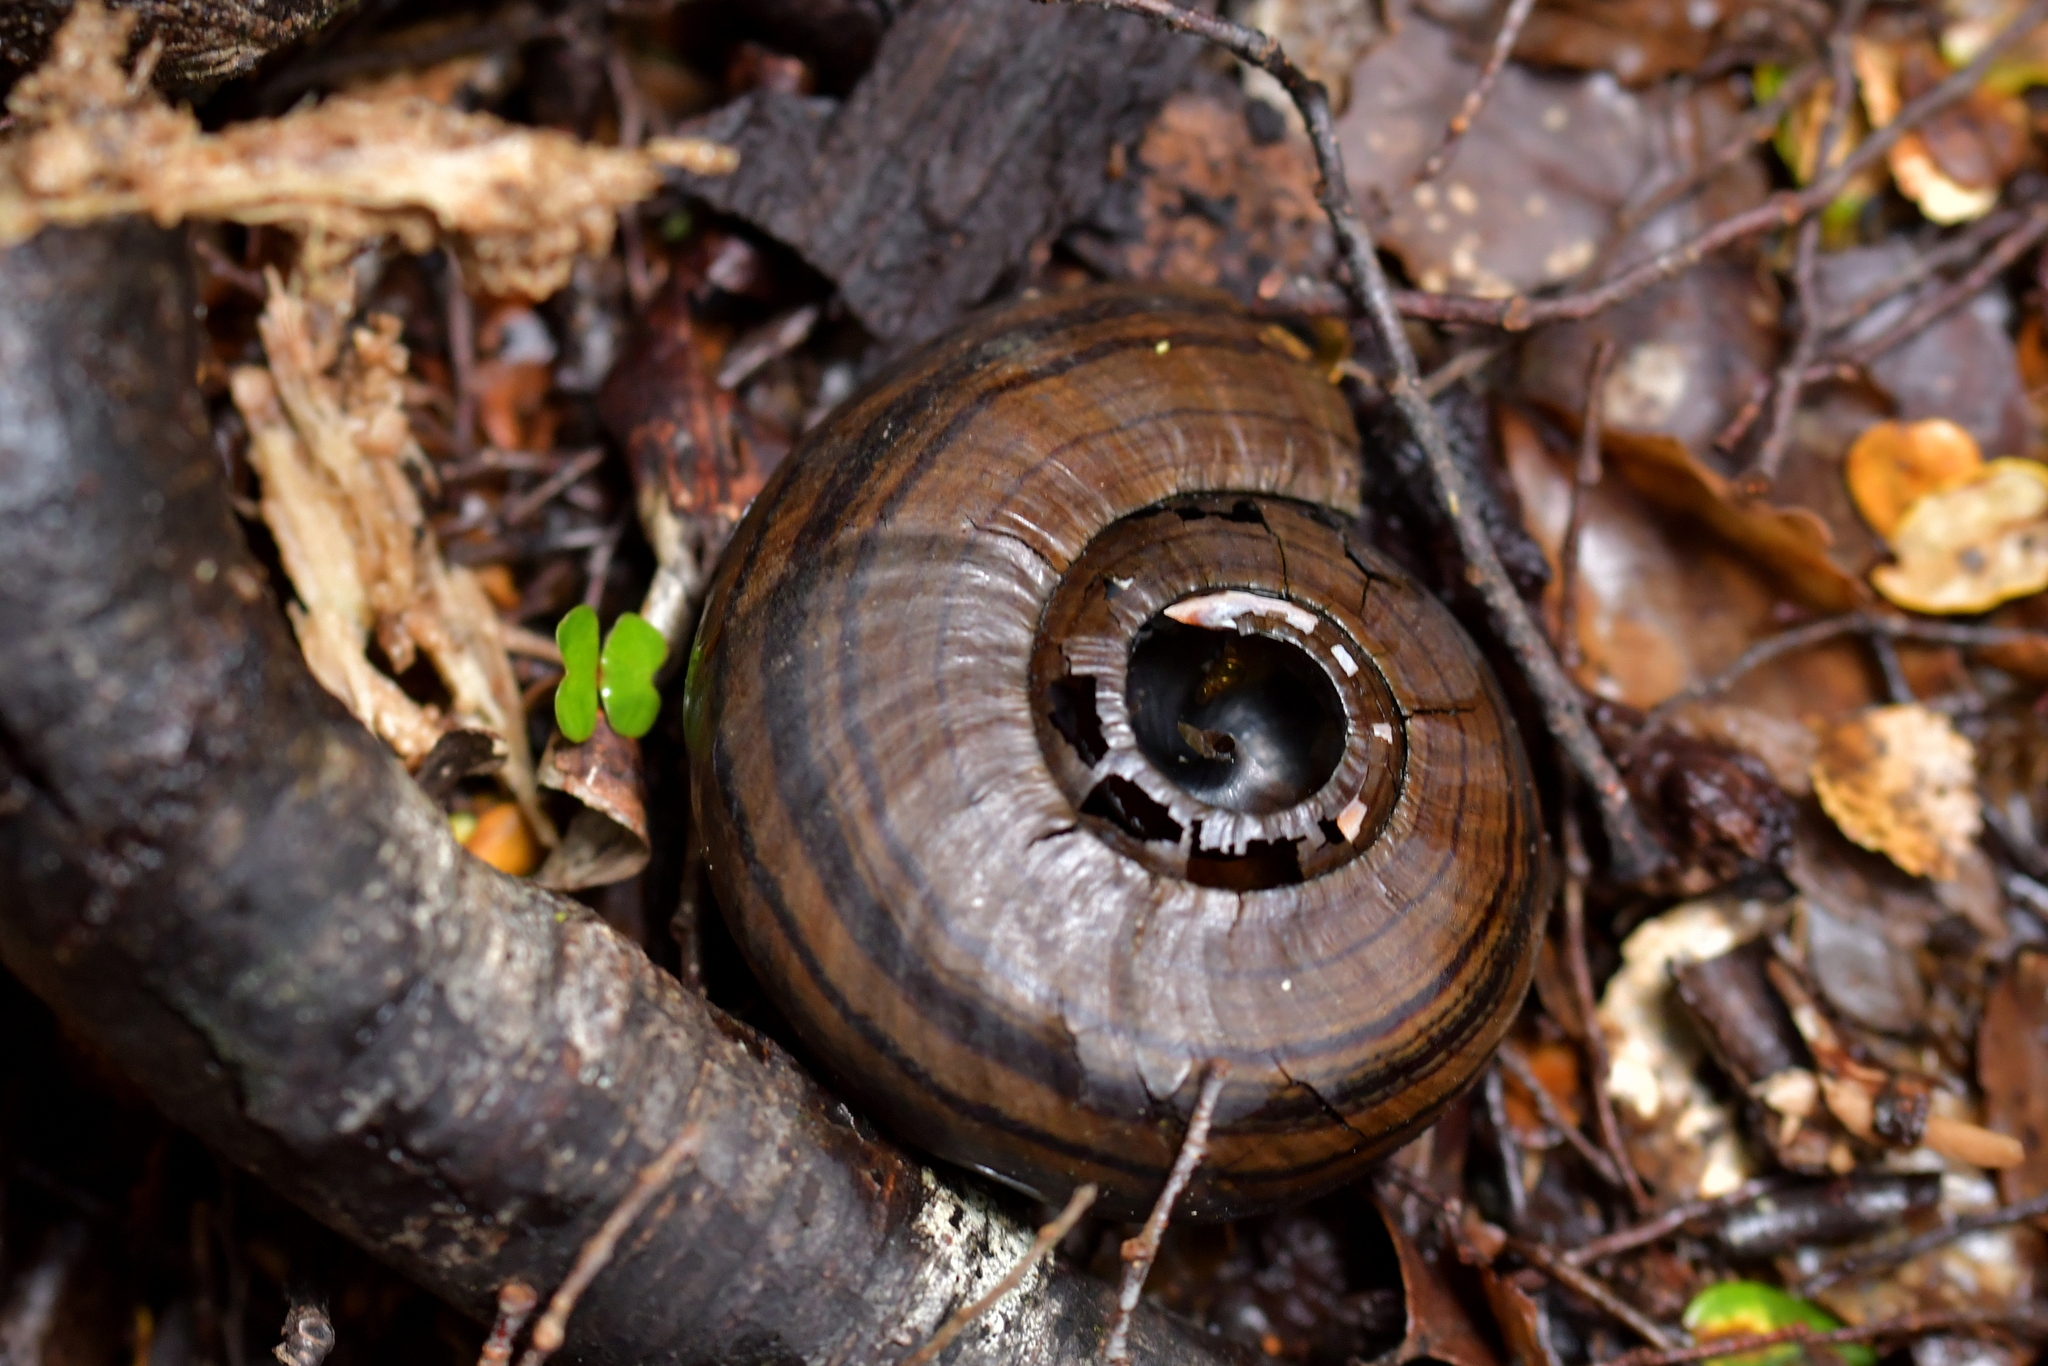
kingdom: Animalia
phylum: Mollusca
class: Gastropoda
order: Stylommatophora
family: Rhytididae
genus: Powelliphanta
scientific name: Powelliphanta hochstetteri
